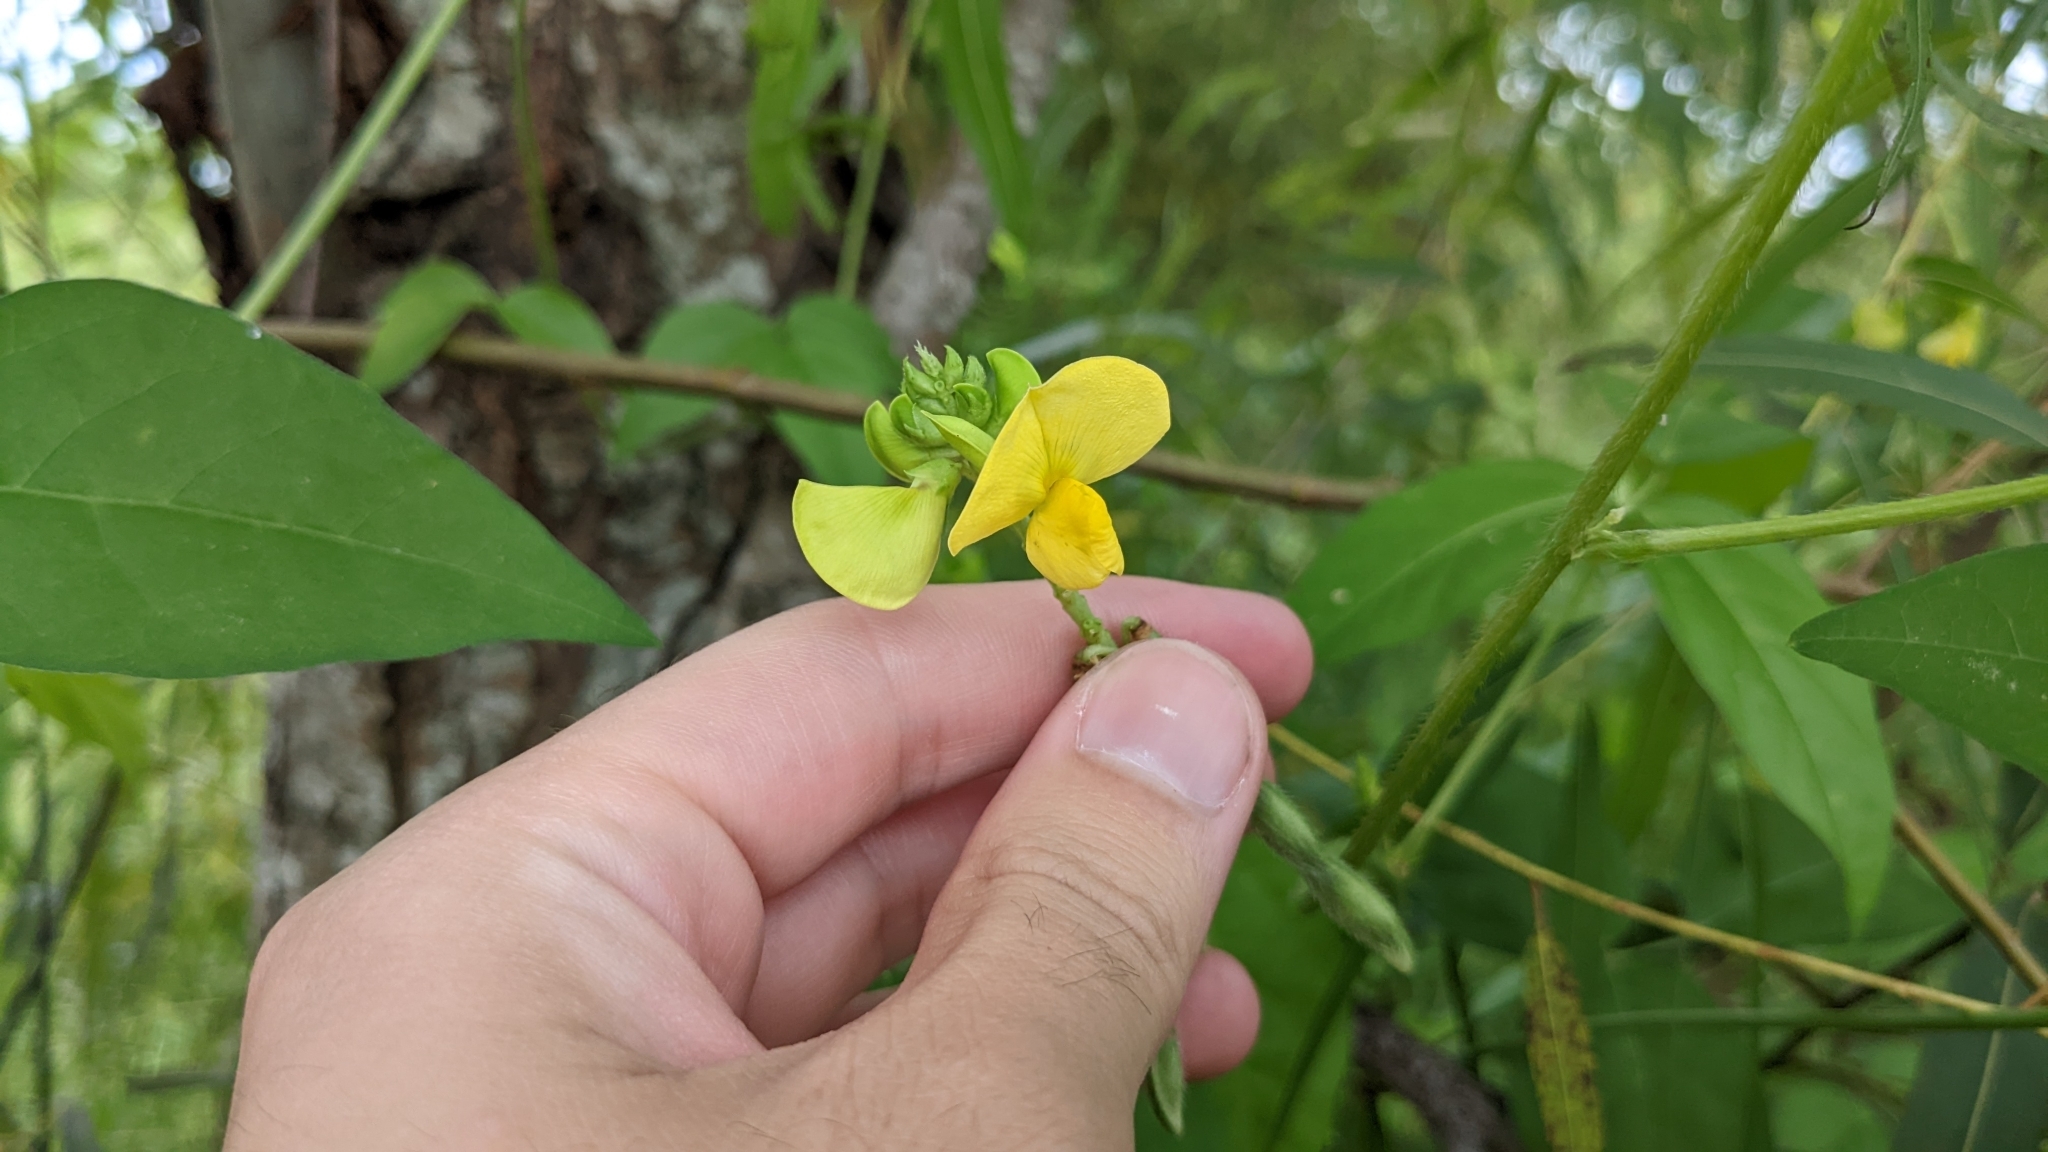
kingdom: Plantae
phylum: Tracheophyta
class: Magnoliopsida
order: Fabales
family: Fabaceae
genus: Vigna
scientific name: Vigna luteola
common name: Hairypod cowpea
